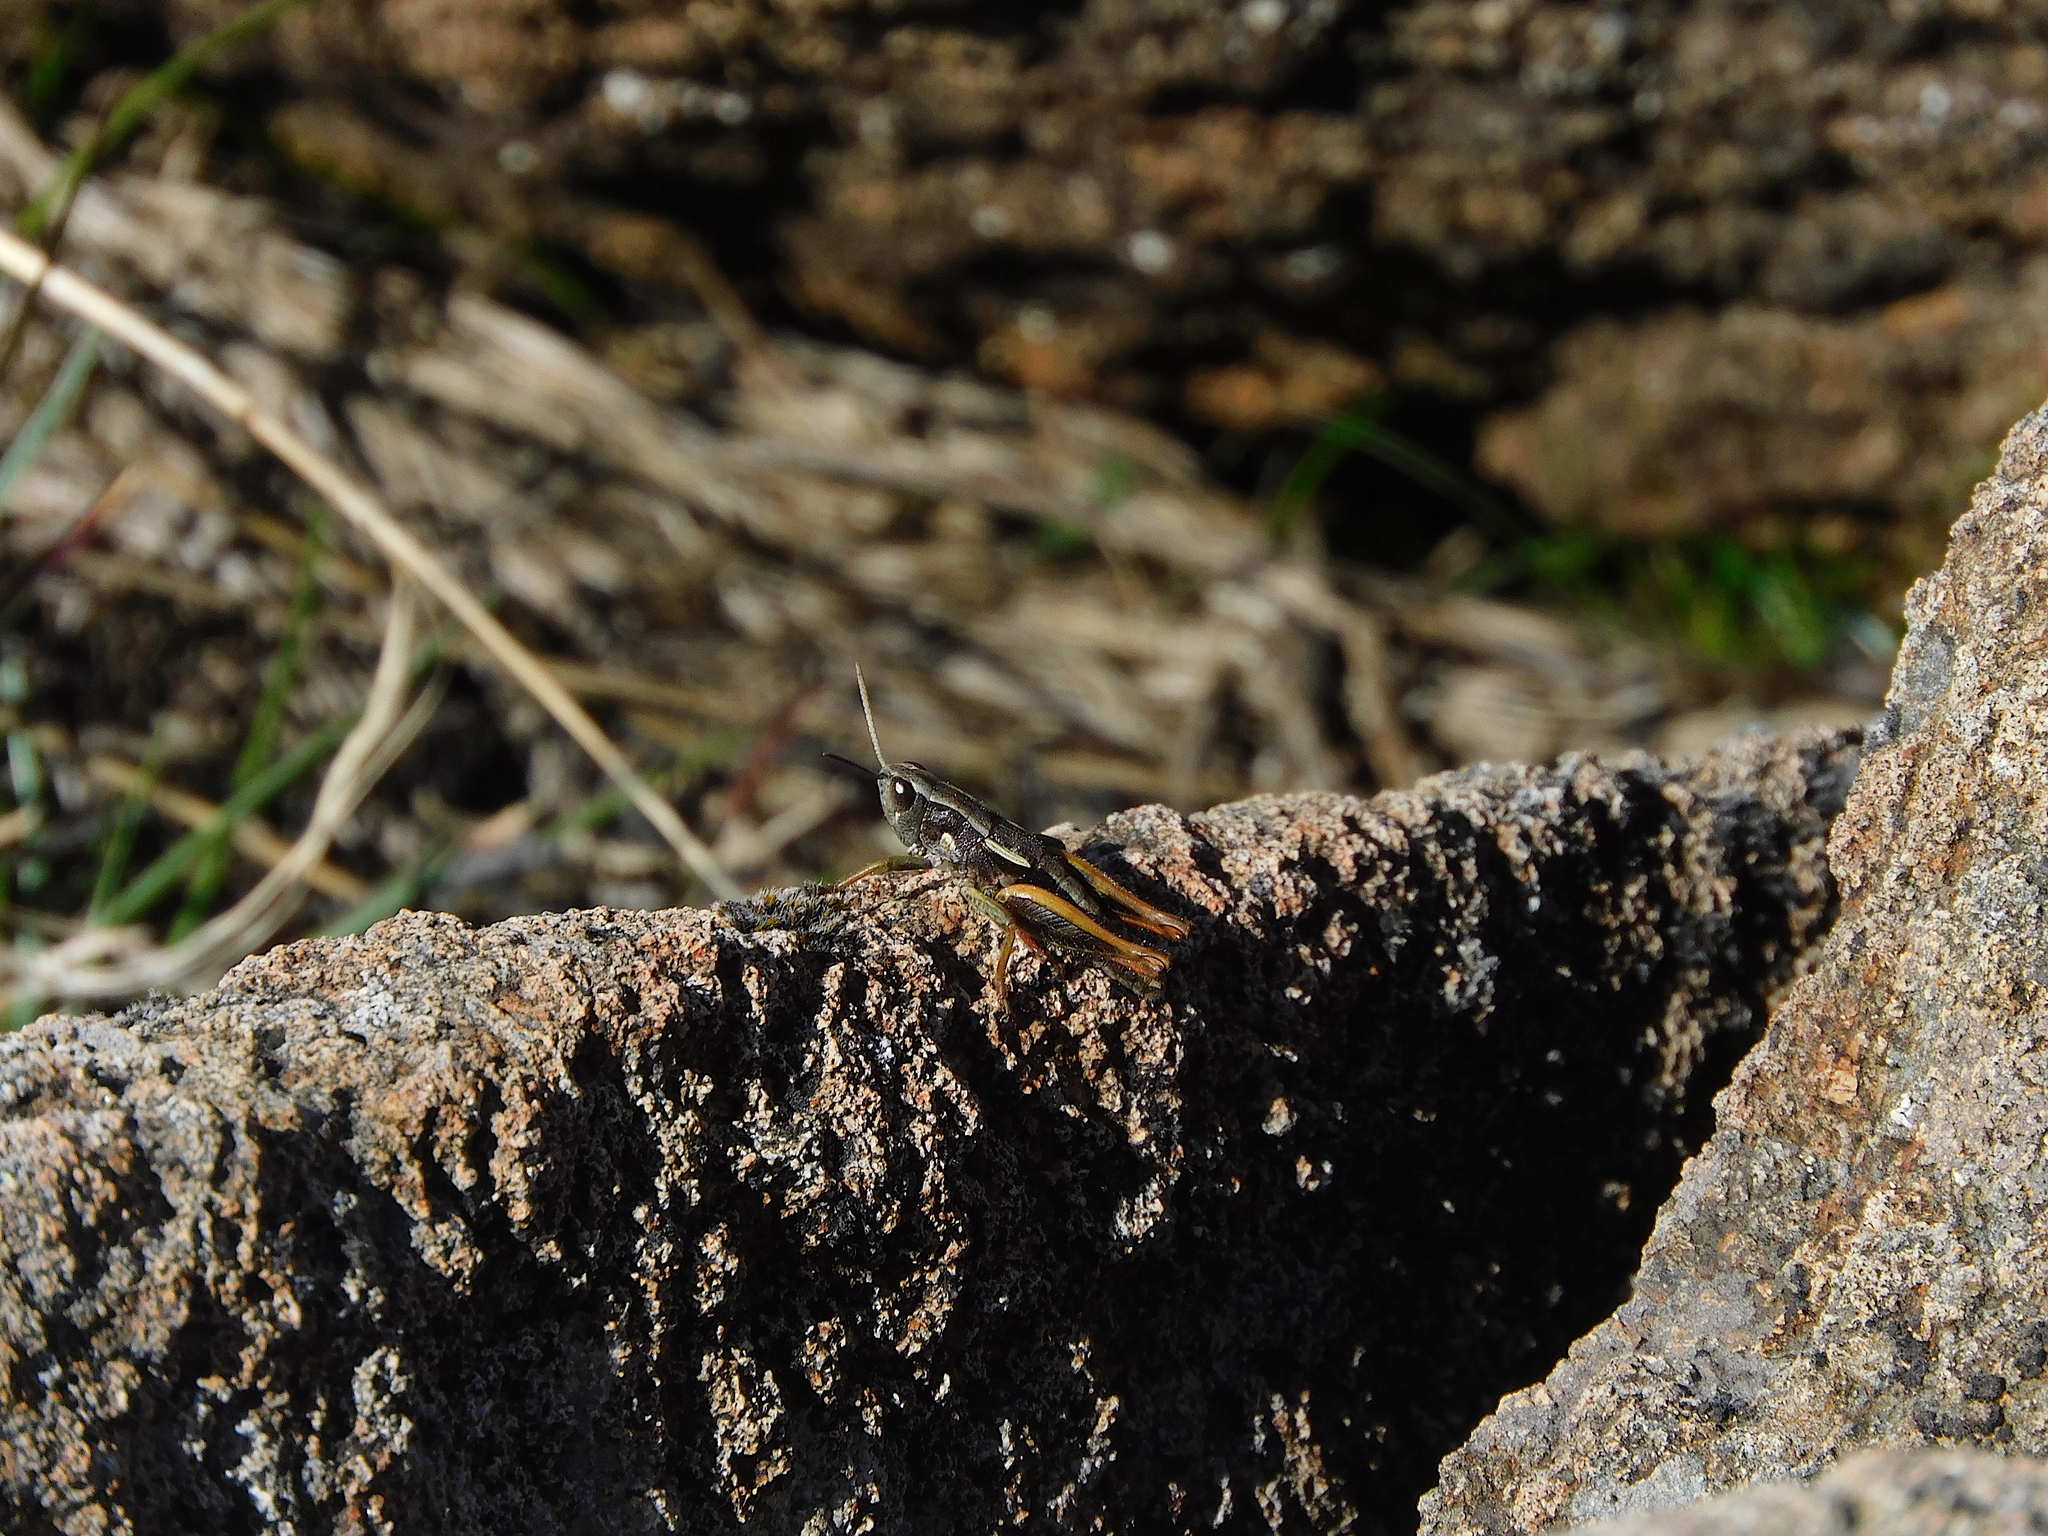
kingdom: Animalia
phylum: Arthropoda
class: Insecta
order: Orthoptera
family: Acrididae
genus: Russalpia
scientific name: Russalpia albertisi
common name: Tassie hopper
